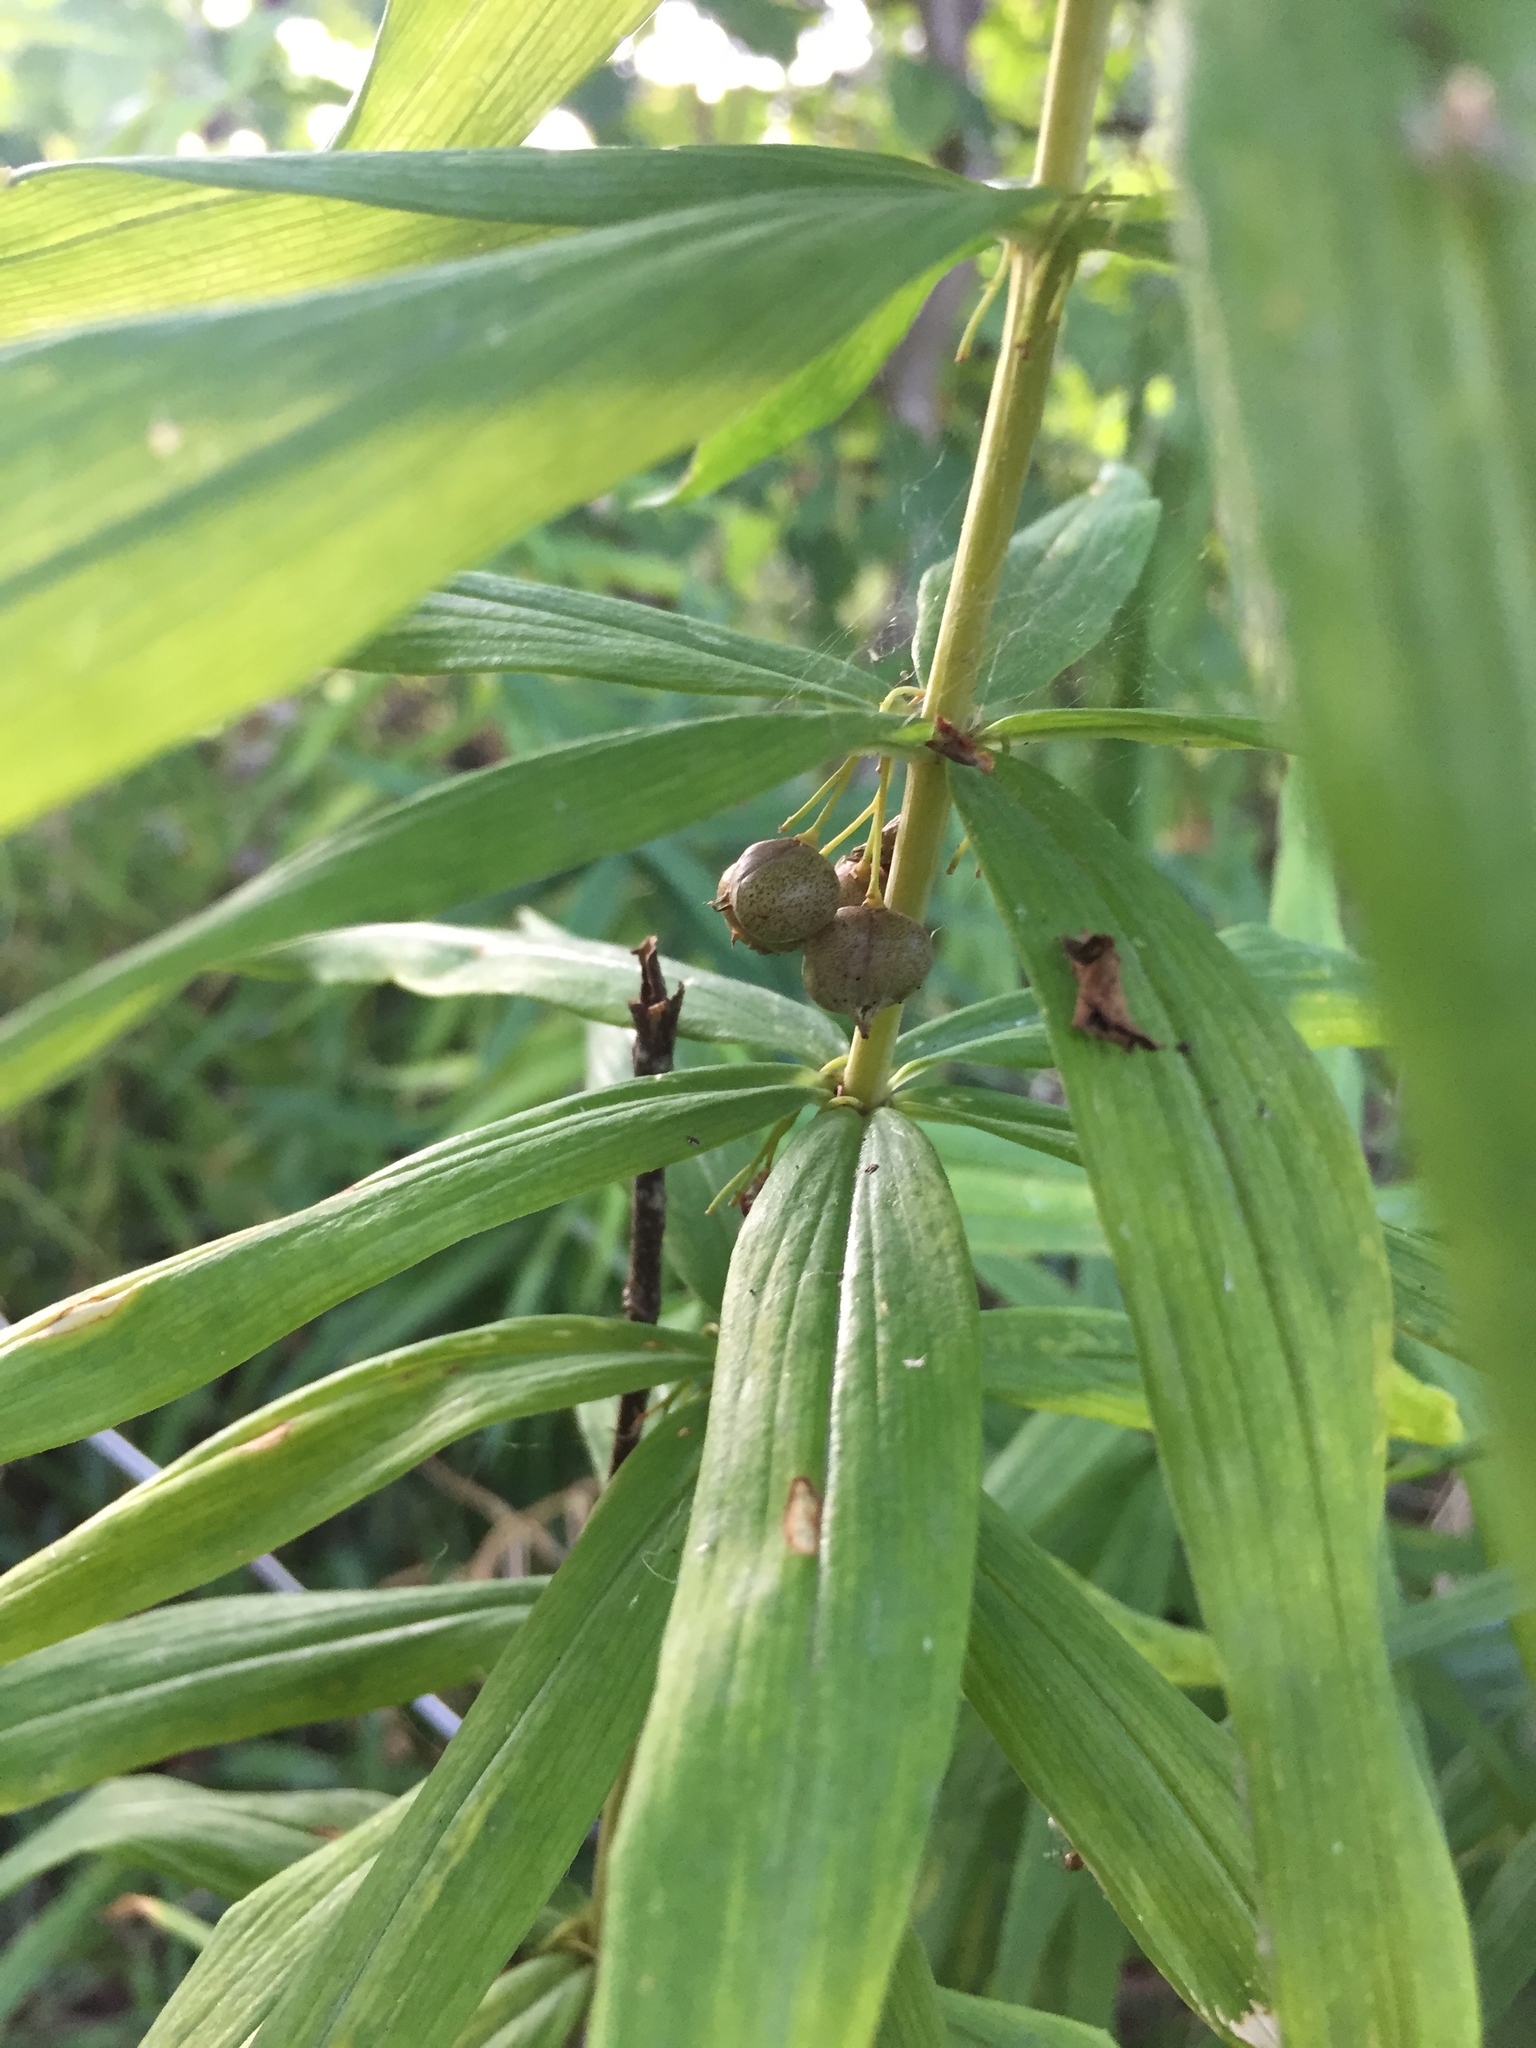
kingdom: Plantae
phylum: Tracheophyta
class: Liliopsida
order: Asparagales
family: Asparagaceae
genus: Polygonatum
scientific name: Polygonatum verticillatum
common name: Whorled solomon's-seal
